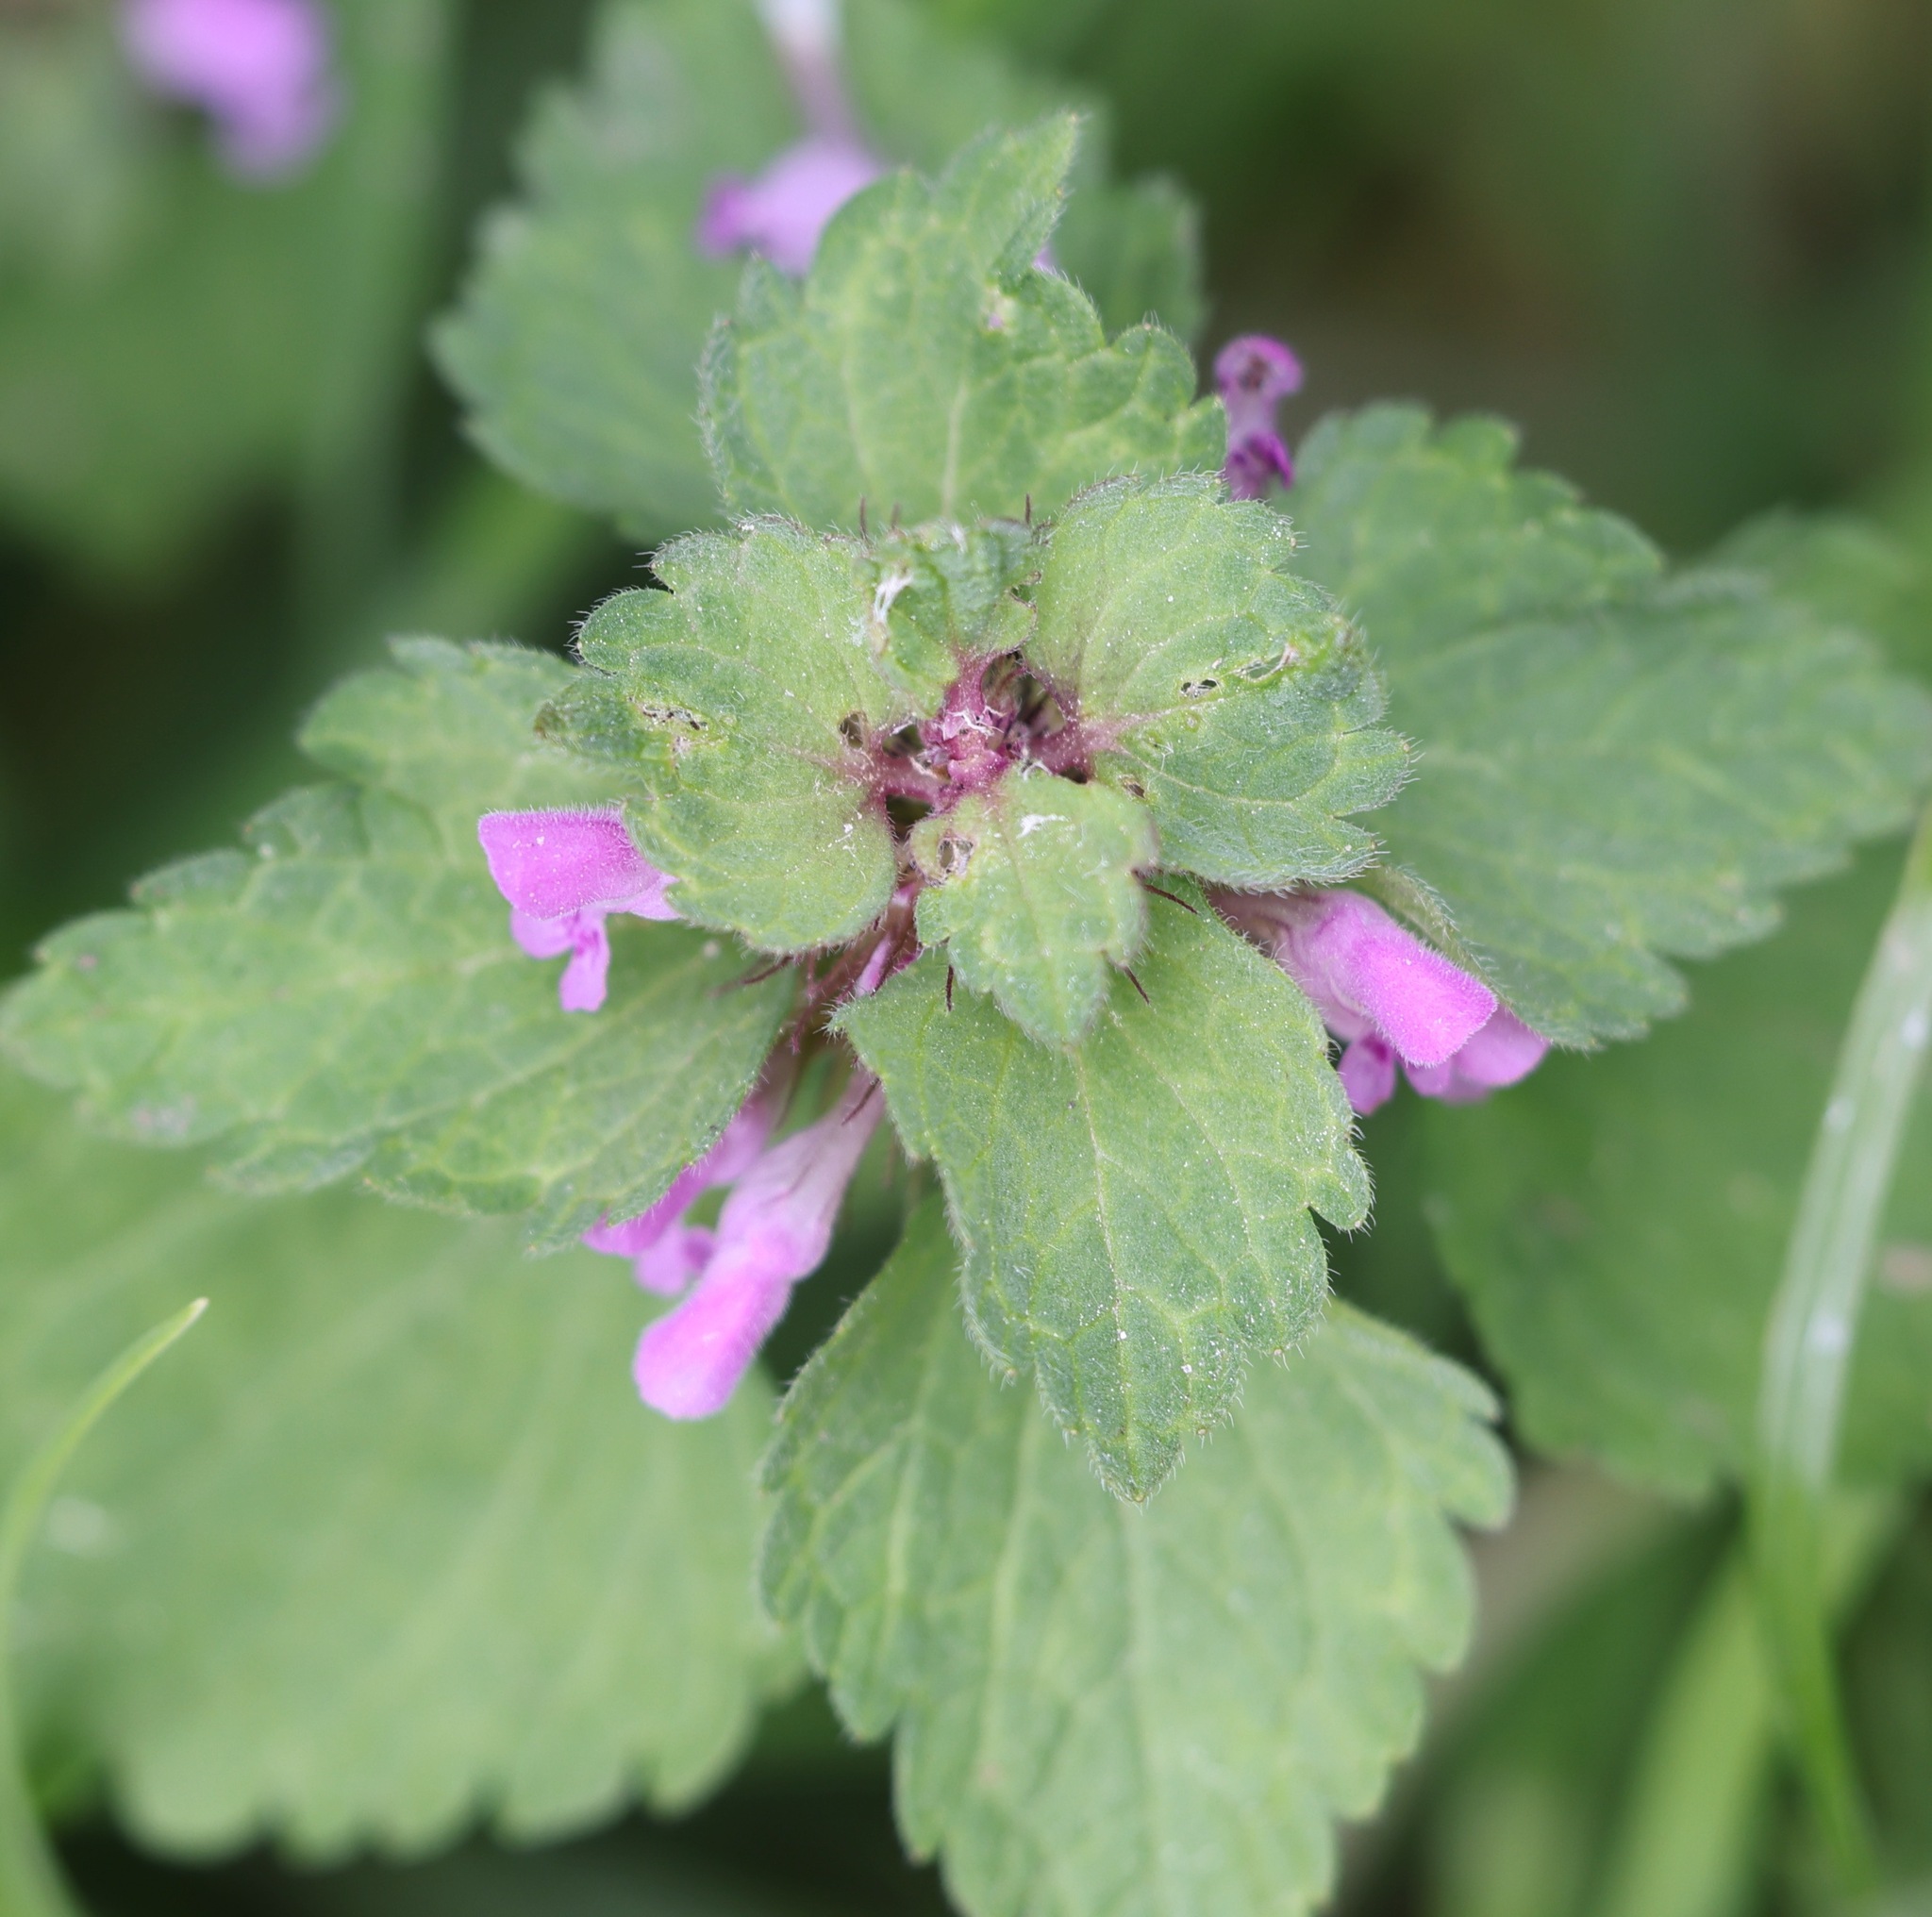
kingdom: Plantae
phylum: Tracheophyta
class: Magnoliopsida
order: Lamiales
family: Lamiaceae
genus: Lamium
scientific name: Lamium purpureum
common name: Red dead-nettle
